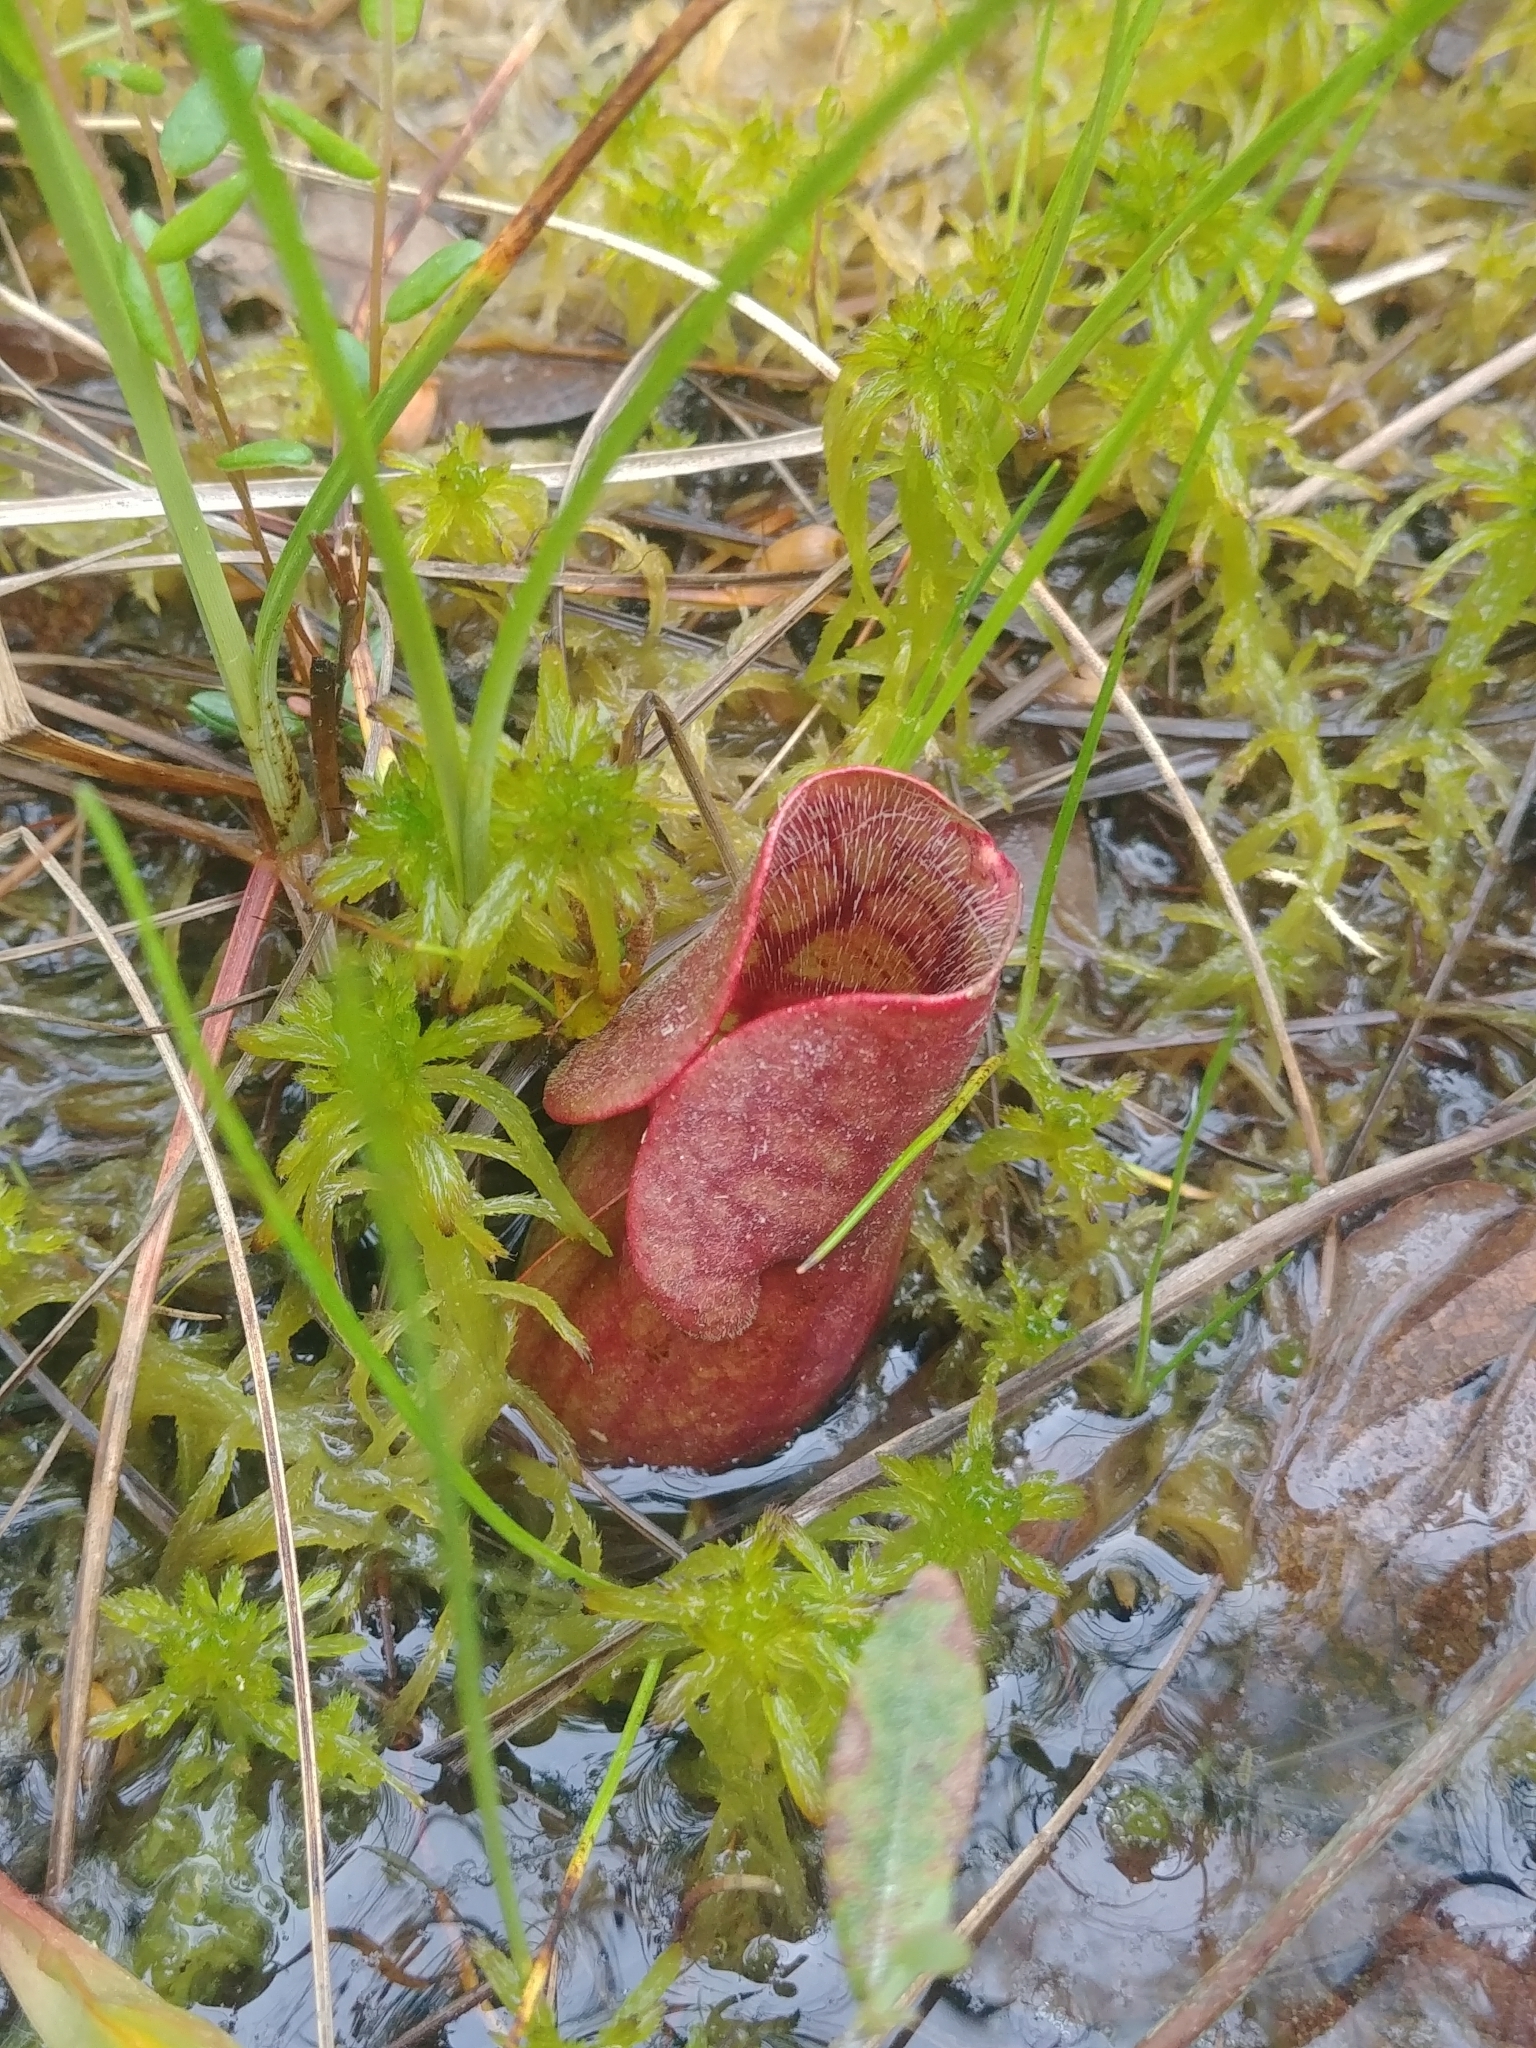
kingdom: Plantae
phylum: Tracheophyta
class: Magnoliopsida
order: Ericales
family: Sarraceniaceae
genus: Sarracenia
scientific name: Sarracenia purpurea
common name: Pitcherplant
